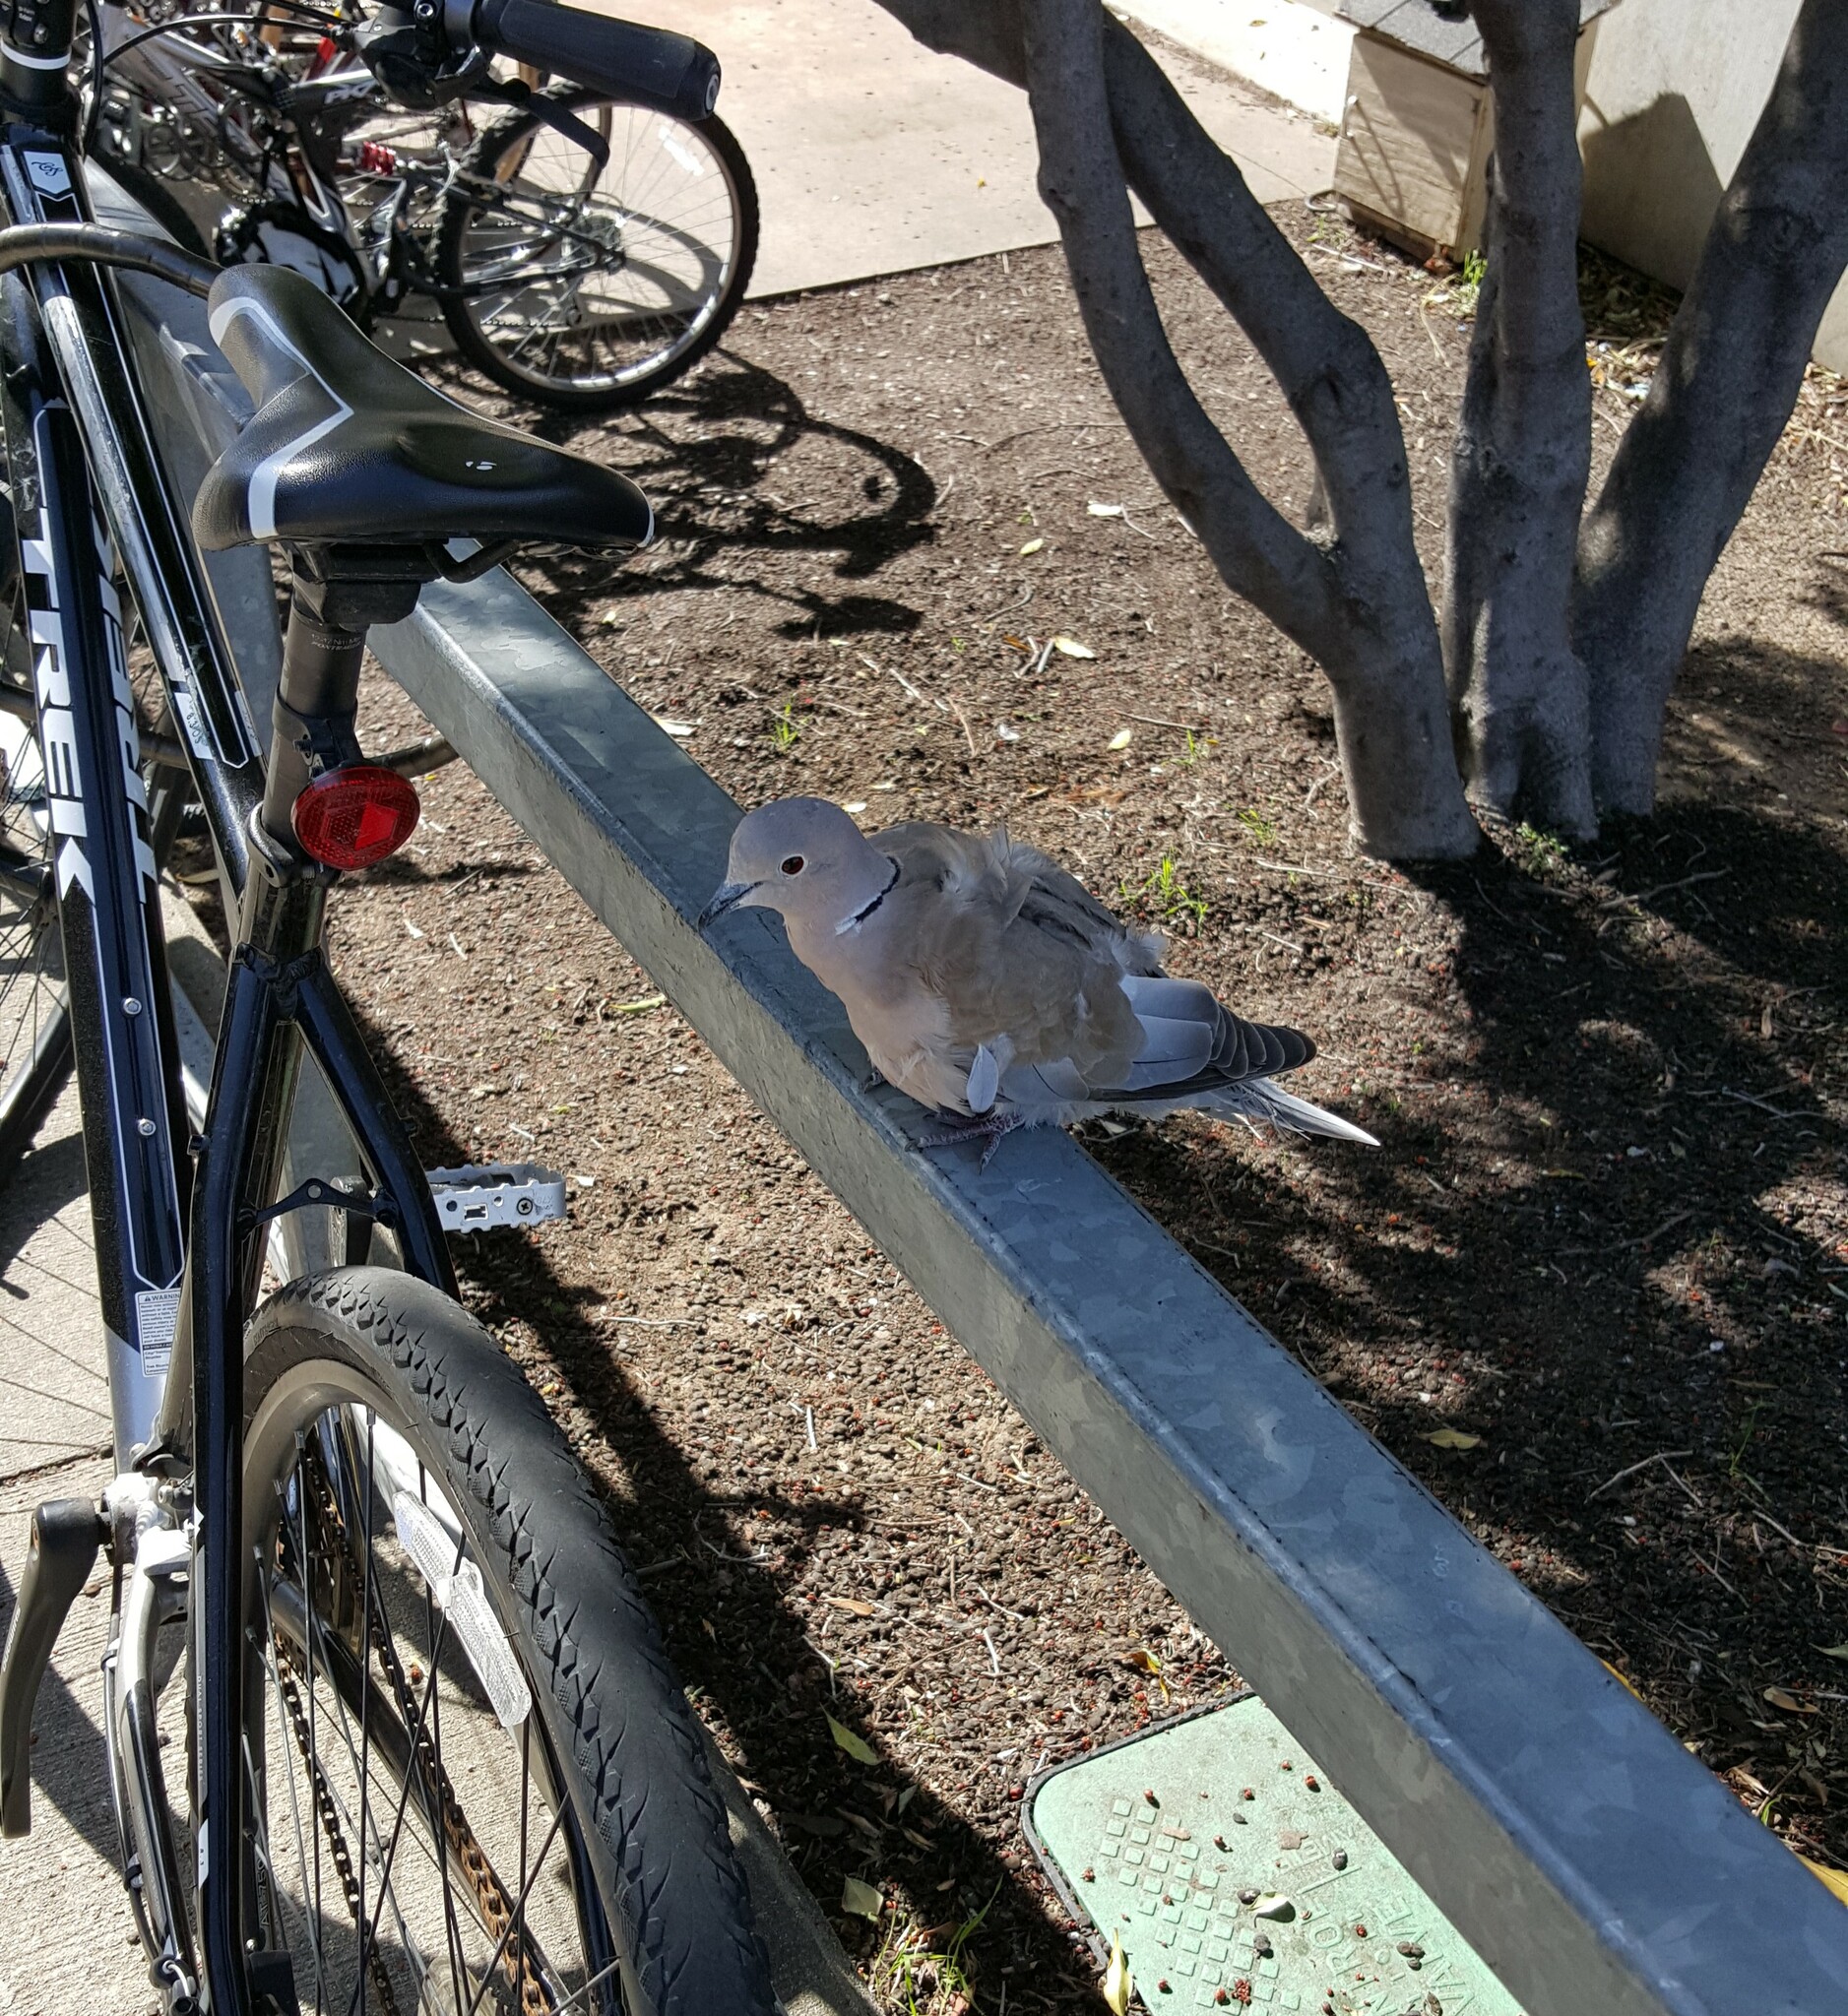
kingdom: Animalia
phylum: Chordata
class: Aves
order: Columbiformes
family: Columbidae
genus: Streptopelia
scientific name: Streptopelia decaocto
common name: Eurasian collared dove
